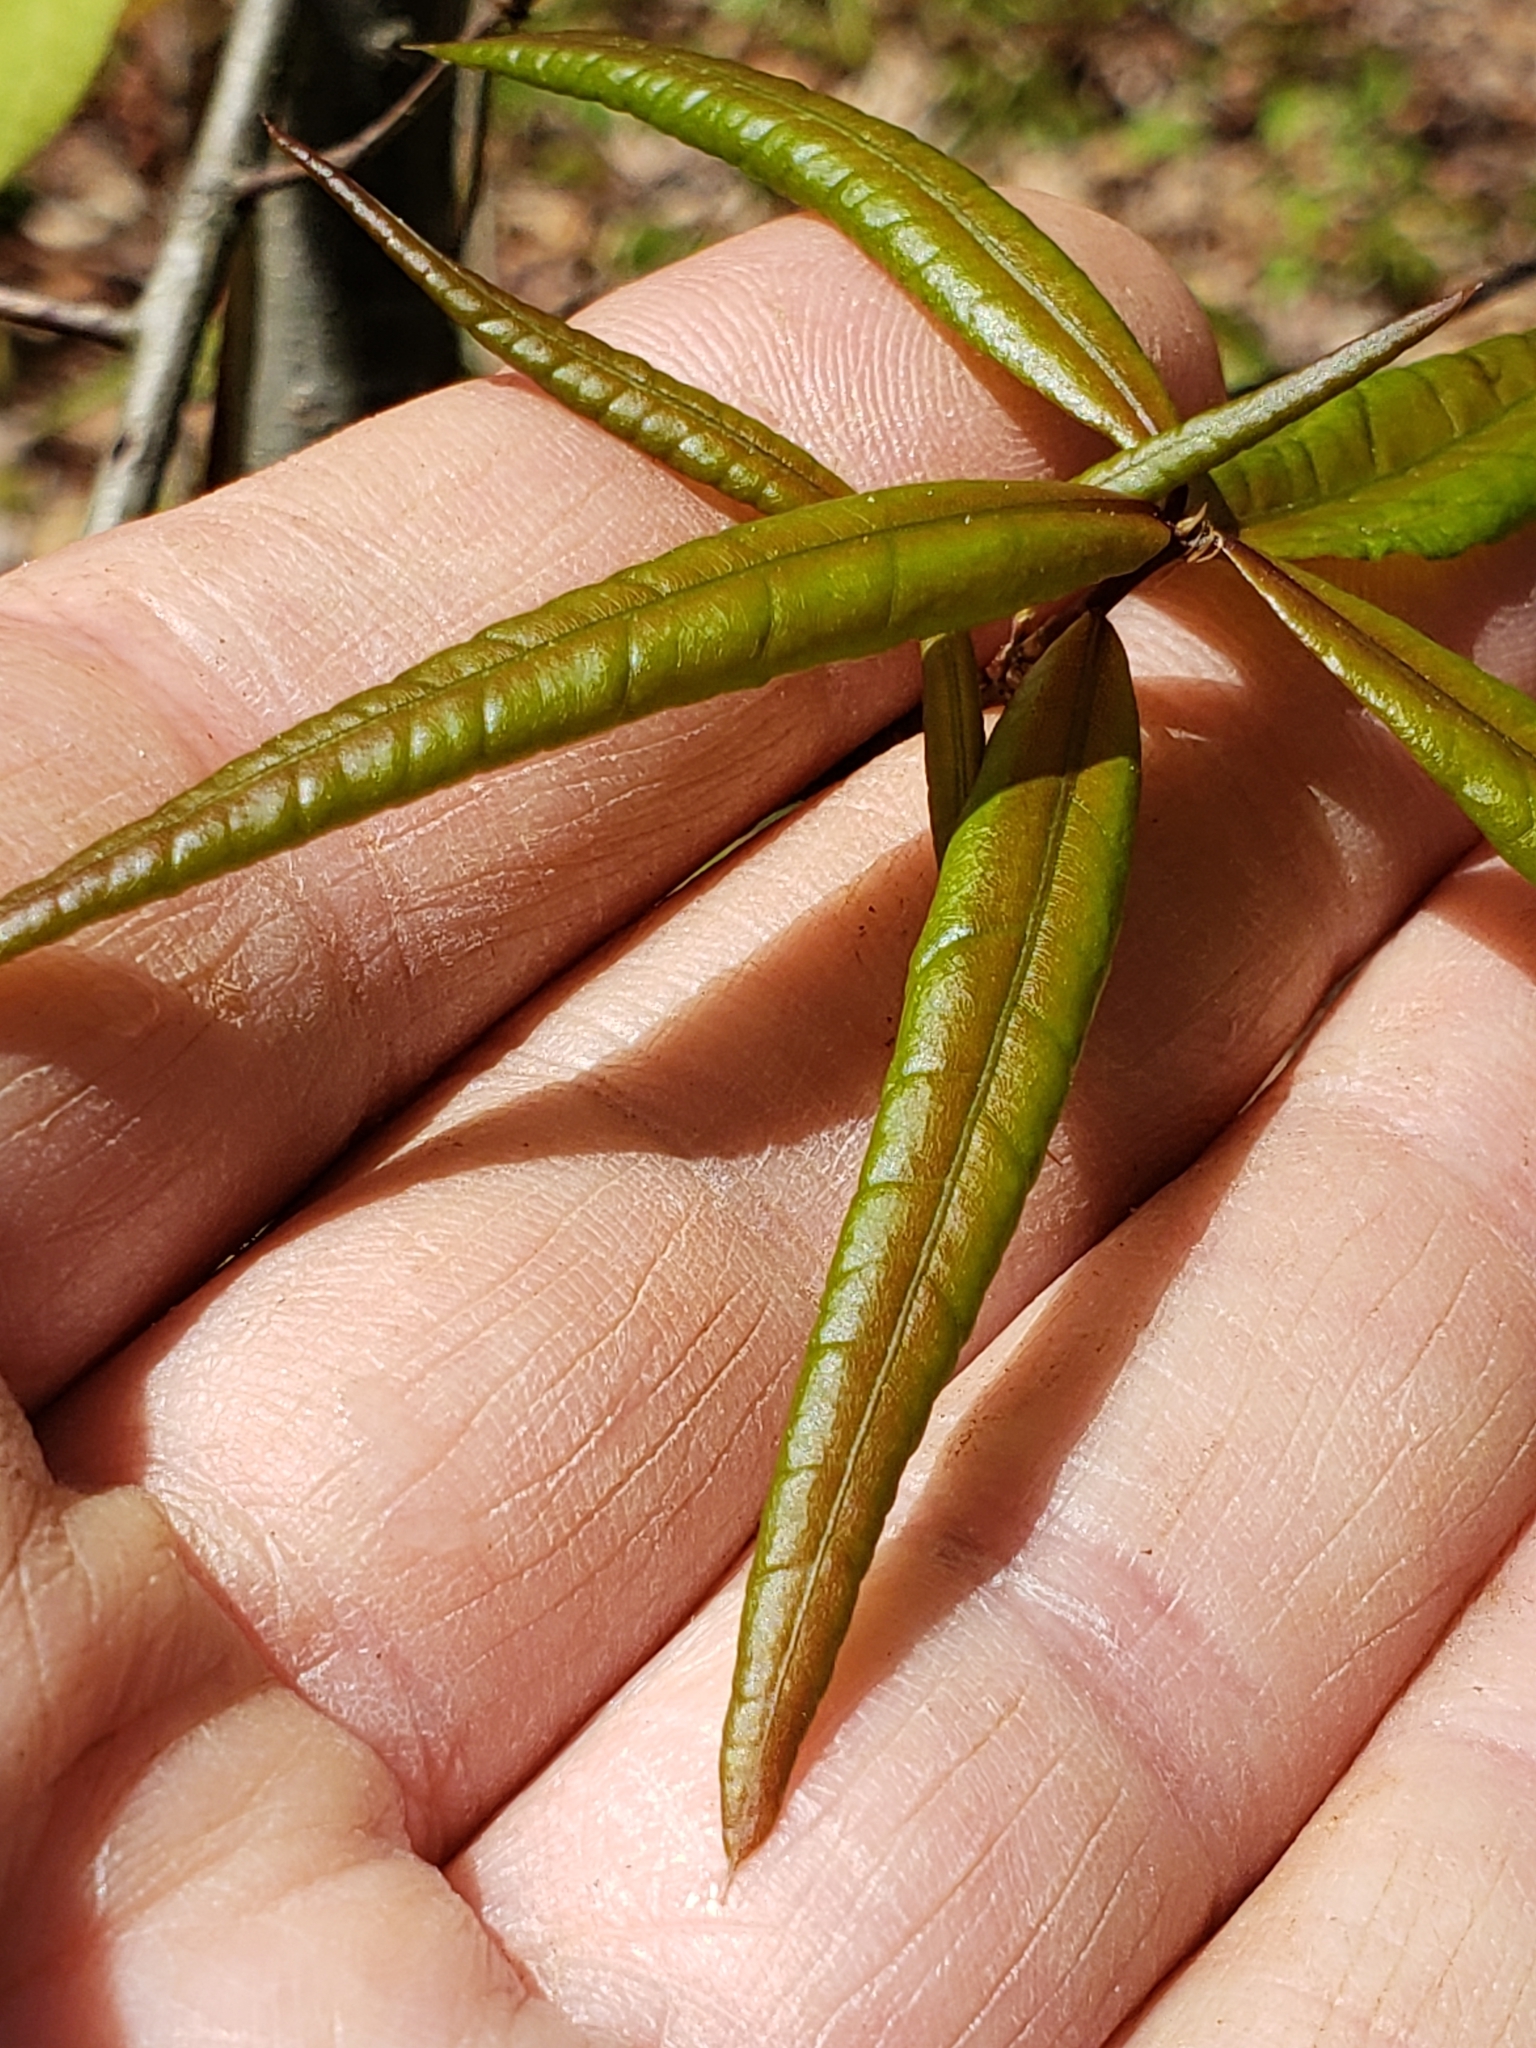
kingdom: Plantae
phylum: Tracheophyta
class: Magnoliopsida
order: Fagales
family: Fagaceae
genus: Quercus
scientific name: Quercus phellos
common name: Willow oak
